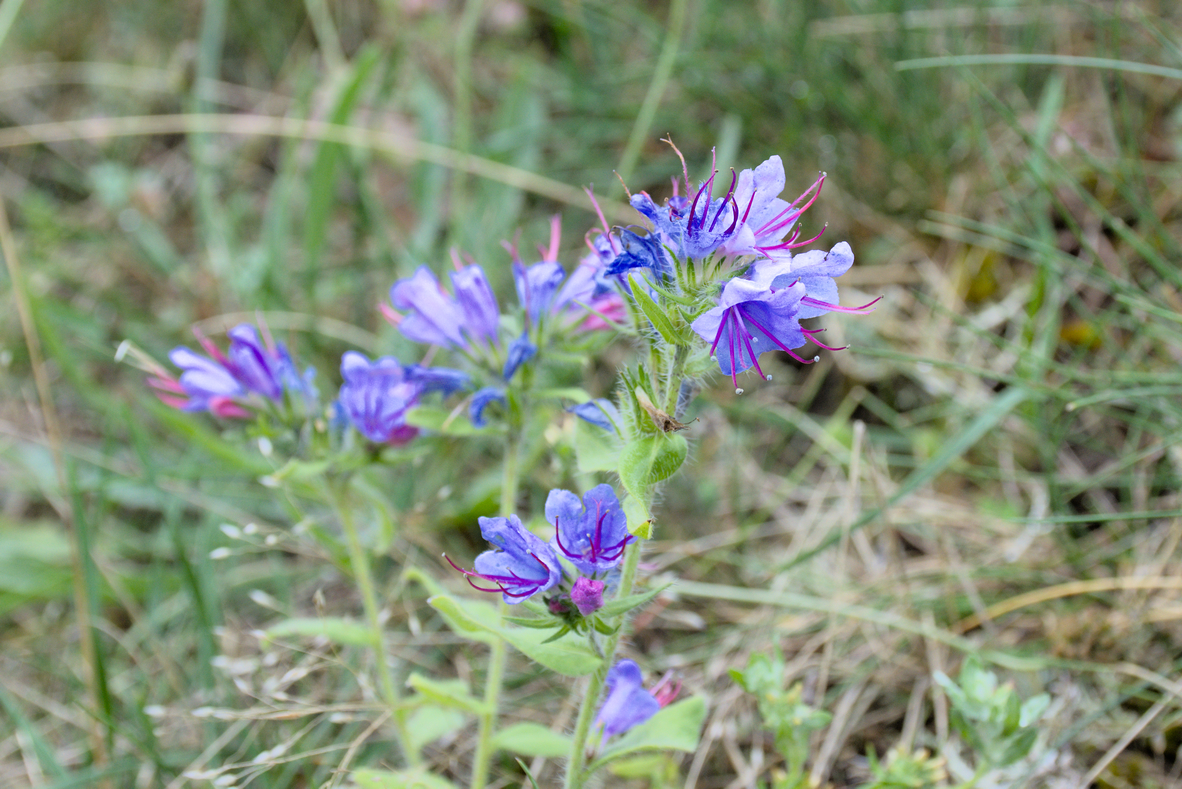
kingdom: Plantae
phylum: Tracheophyta
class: Magnoliopsida
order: Boraginales
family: Boraginaceae
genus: Echium
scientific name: Echium vulgare
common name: Common viper's bugloss
